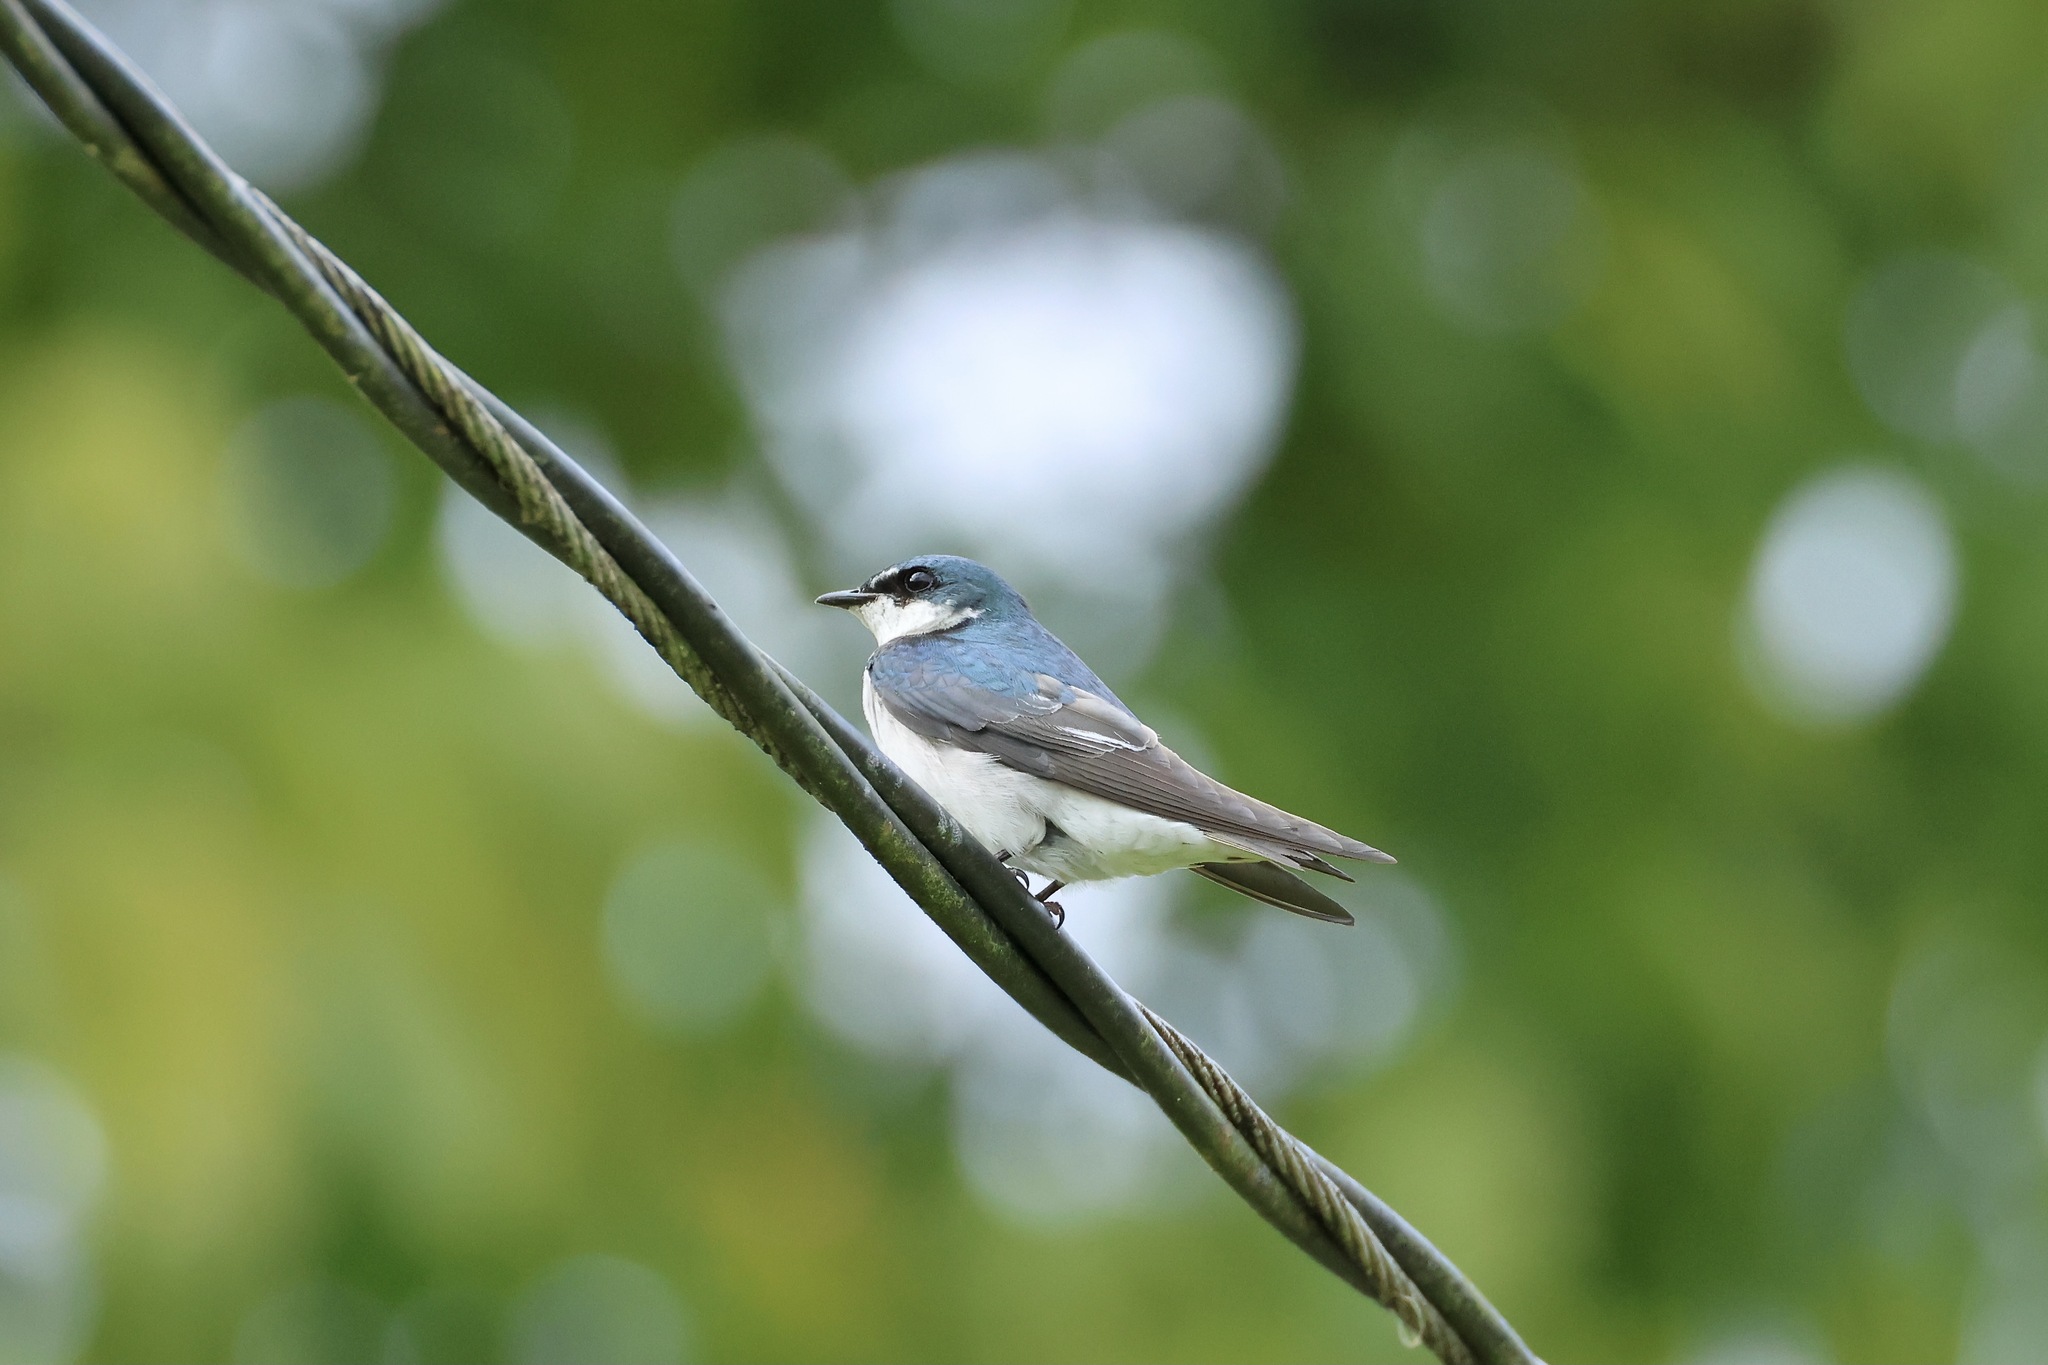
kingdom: Animalia
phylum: Chordata
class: Aves
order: Passeriformes
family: Hirundinidae
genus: Tachycineta
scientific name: Tachycineta albilinea
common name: Mangrove swallow
